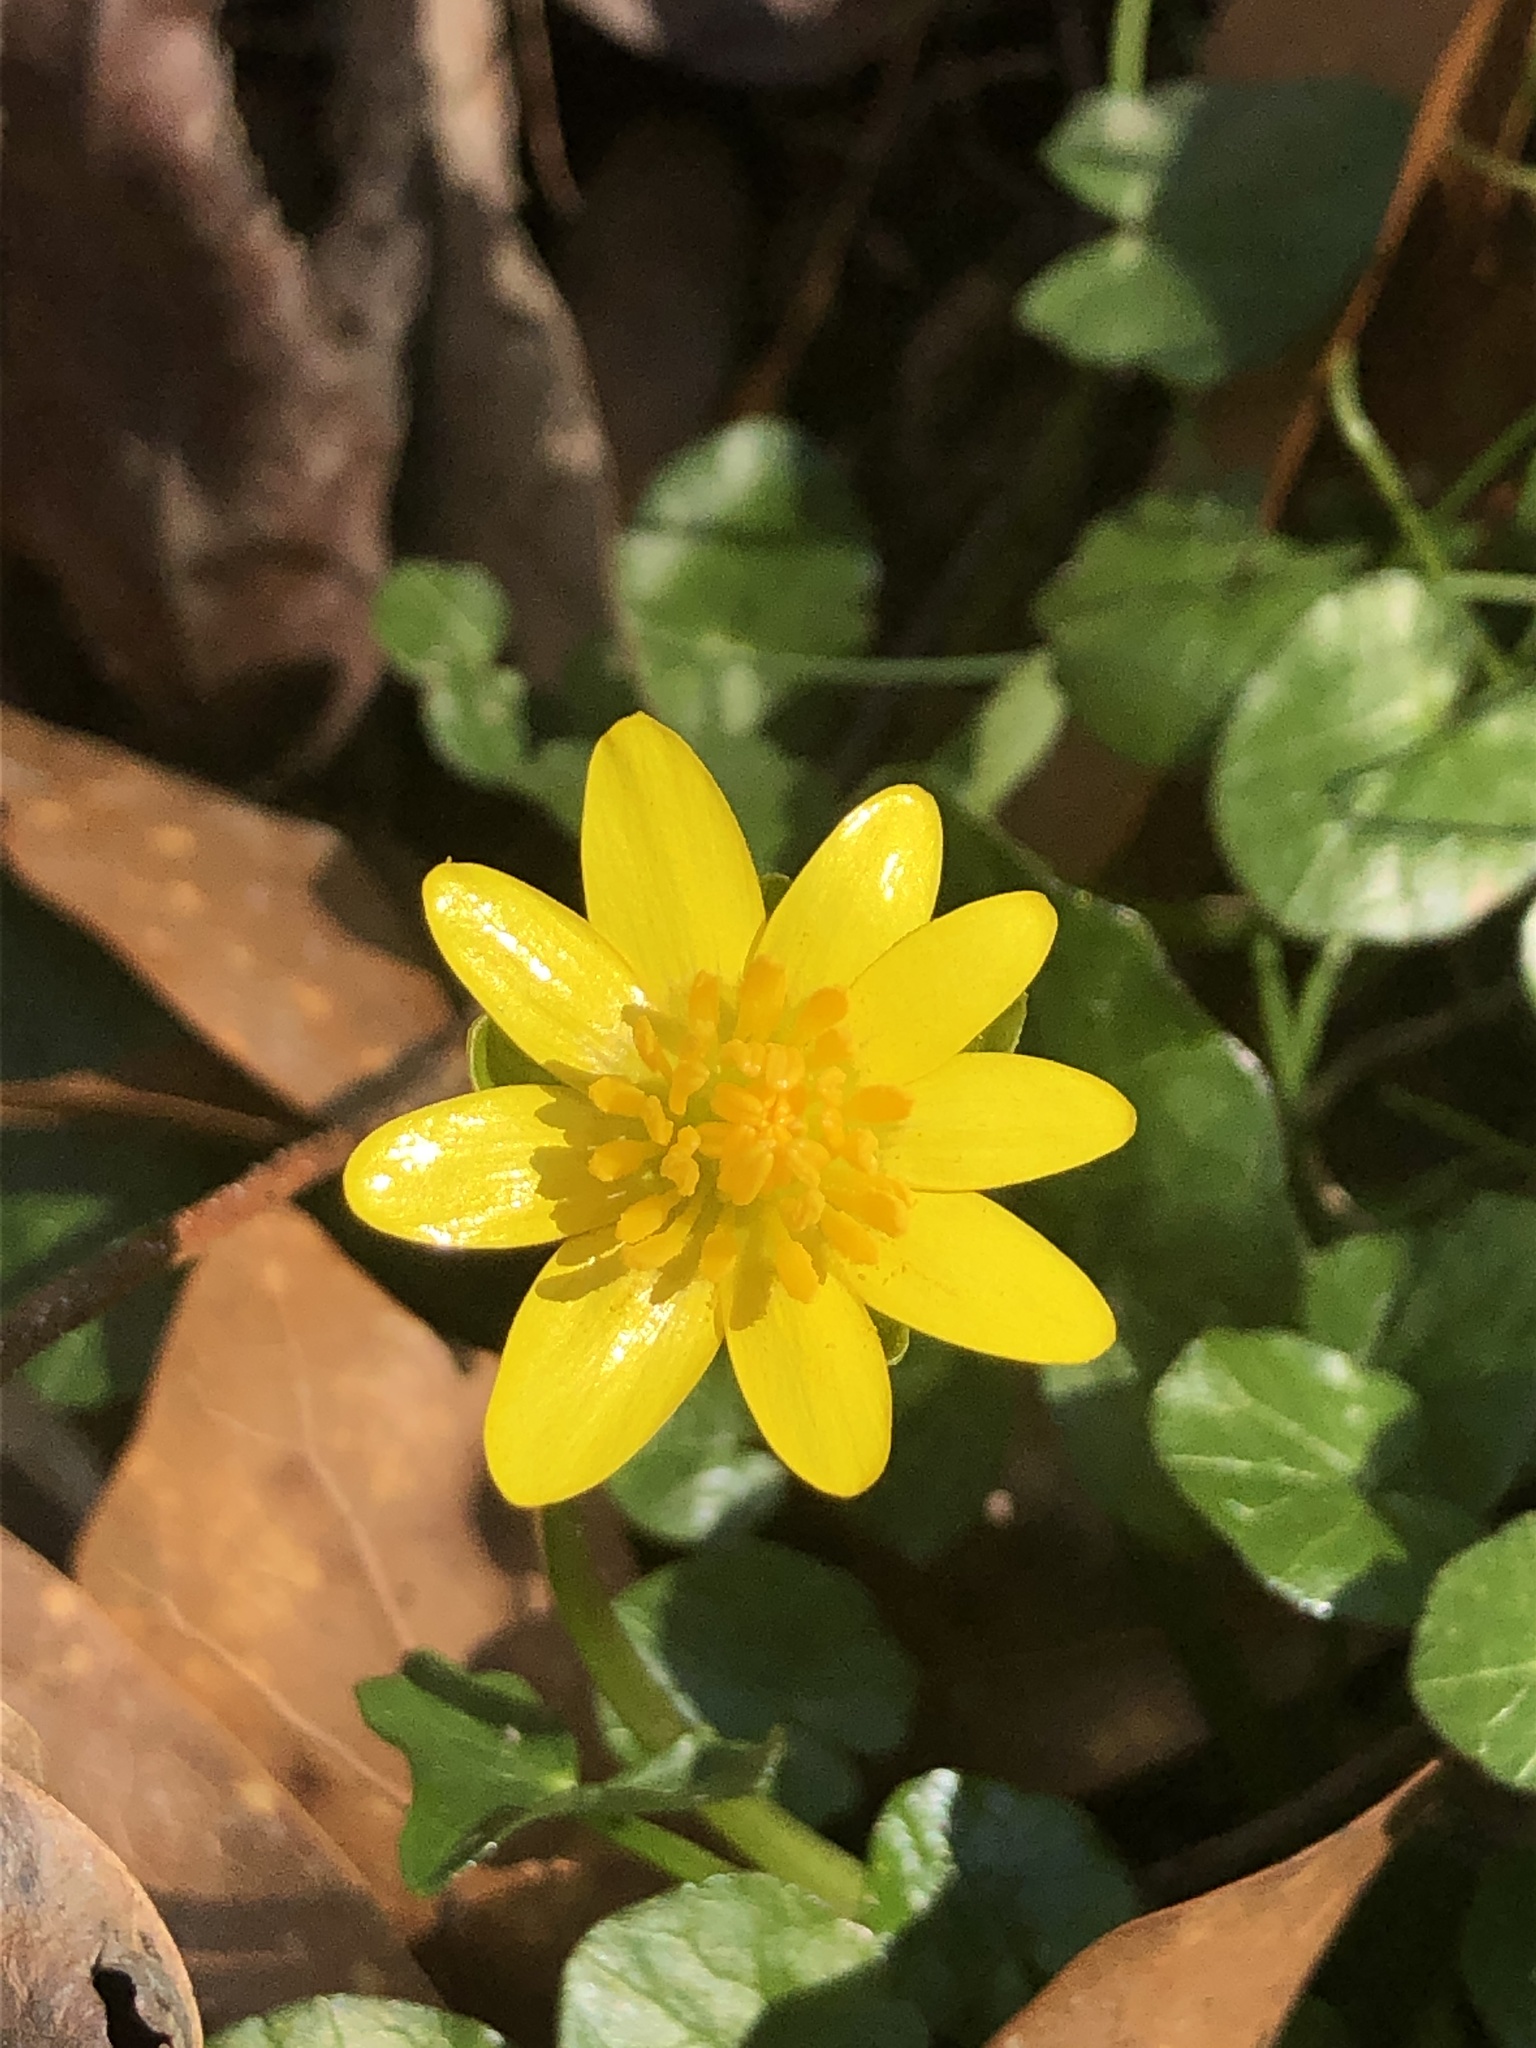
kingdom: Plantae
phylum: Tracheophyta
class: Magnoliopsida
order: Ranunculales
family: Ranunculaceae
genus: Ficaria
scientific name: Ficaria verna
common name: Lesser celandine
